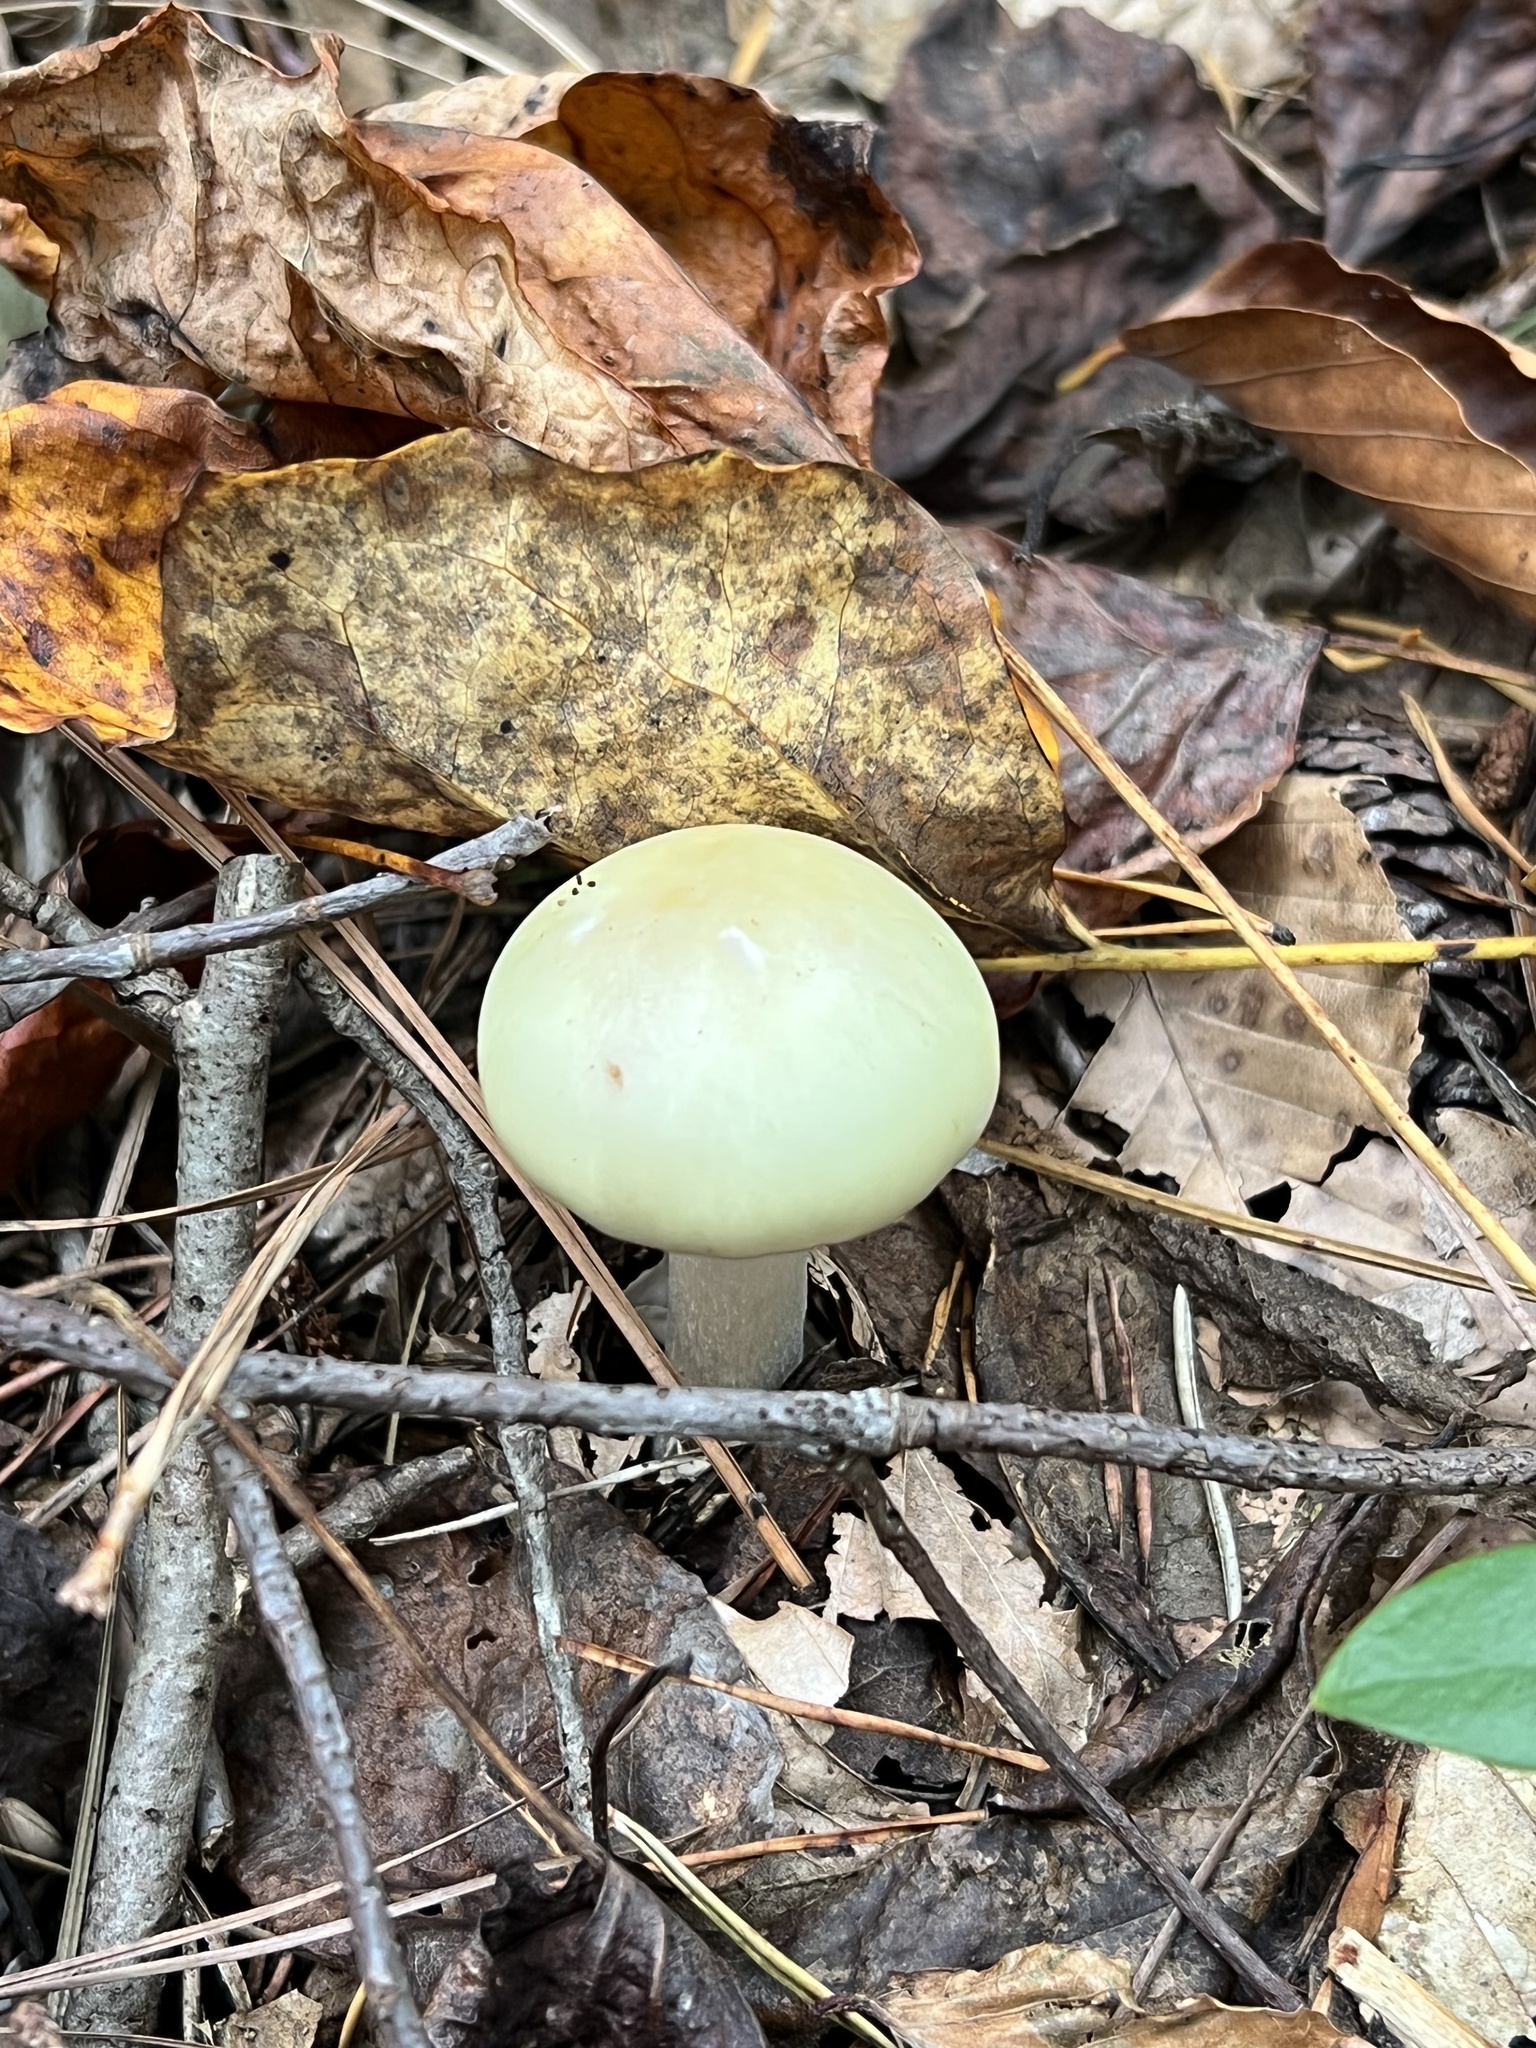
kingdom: Fungi
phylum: Basidiomycota
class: Agaricomycetes
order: Agaricales
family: Amanitaceae
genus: Amanita
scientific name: Amanita lavendula
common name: Coker's lavender staining amanita
